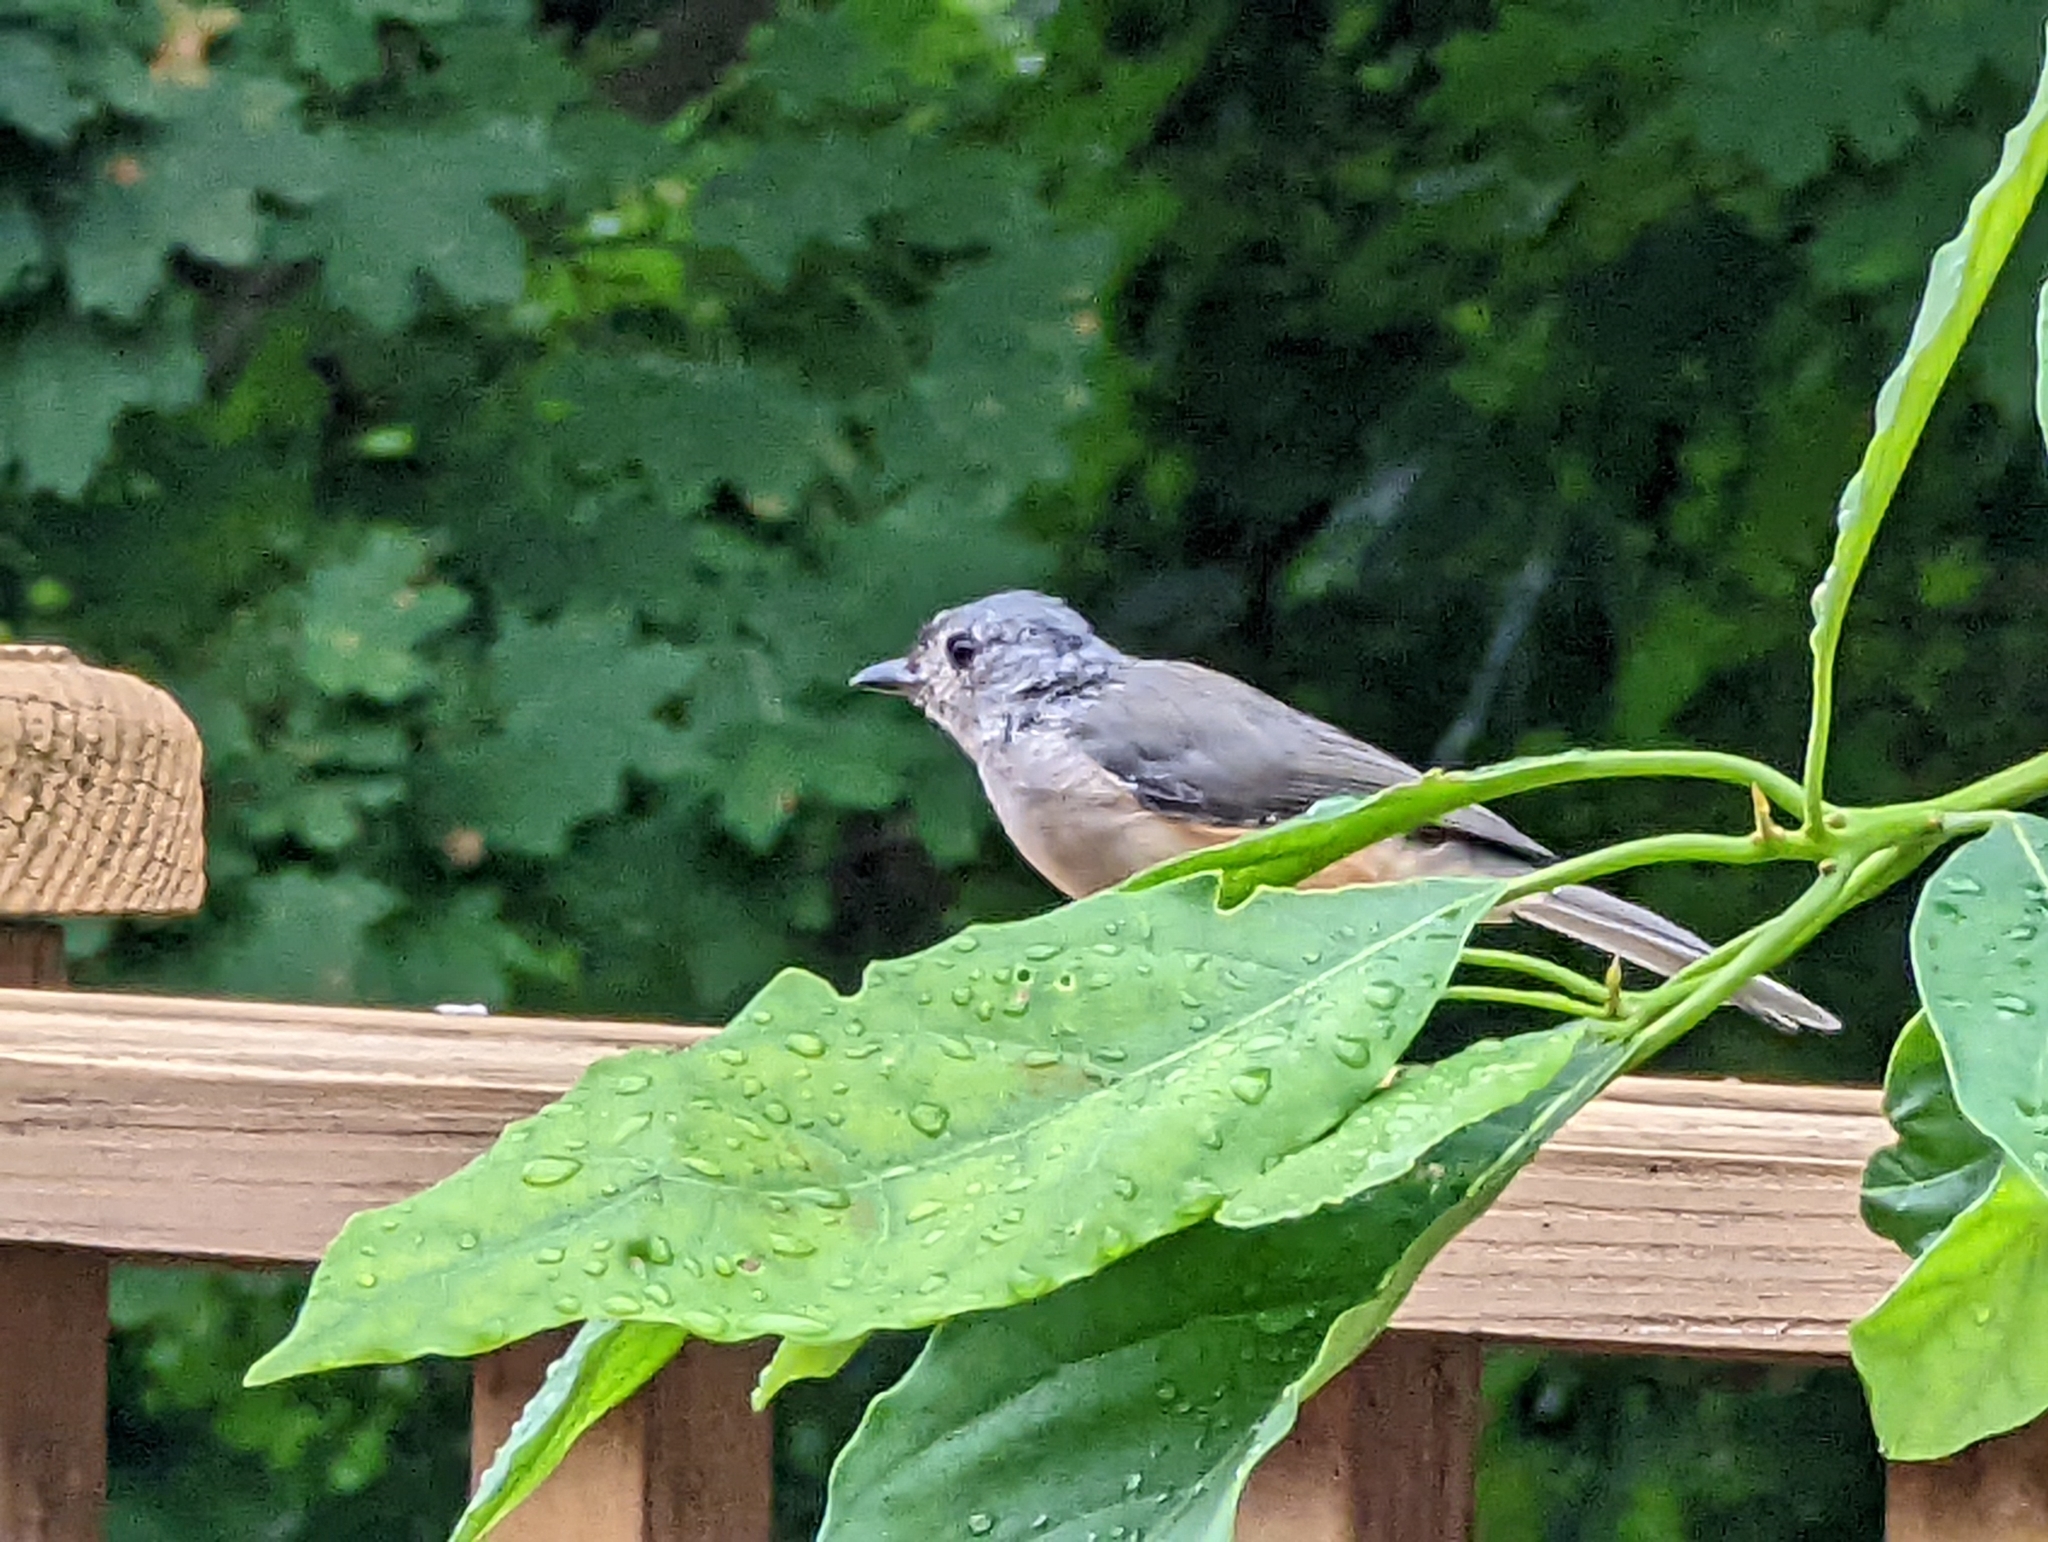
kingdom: Animalia
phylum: Chordata
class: Aves
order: Passeriformes
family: Paridae
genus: Baeolophus
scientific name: Baeolophus bicolor
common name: Tufted titmouse
